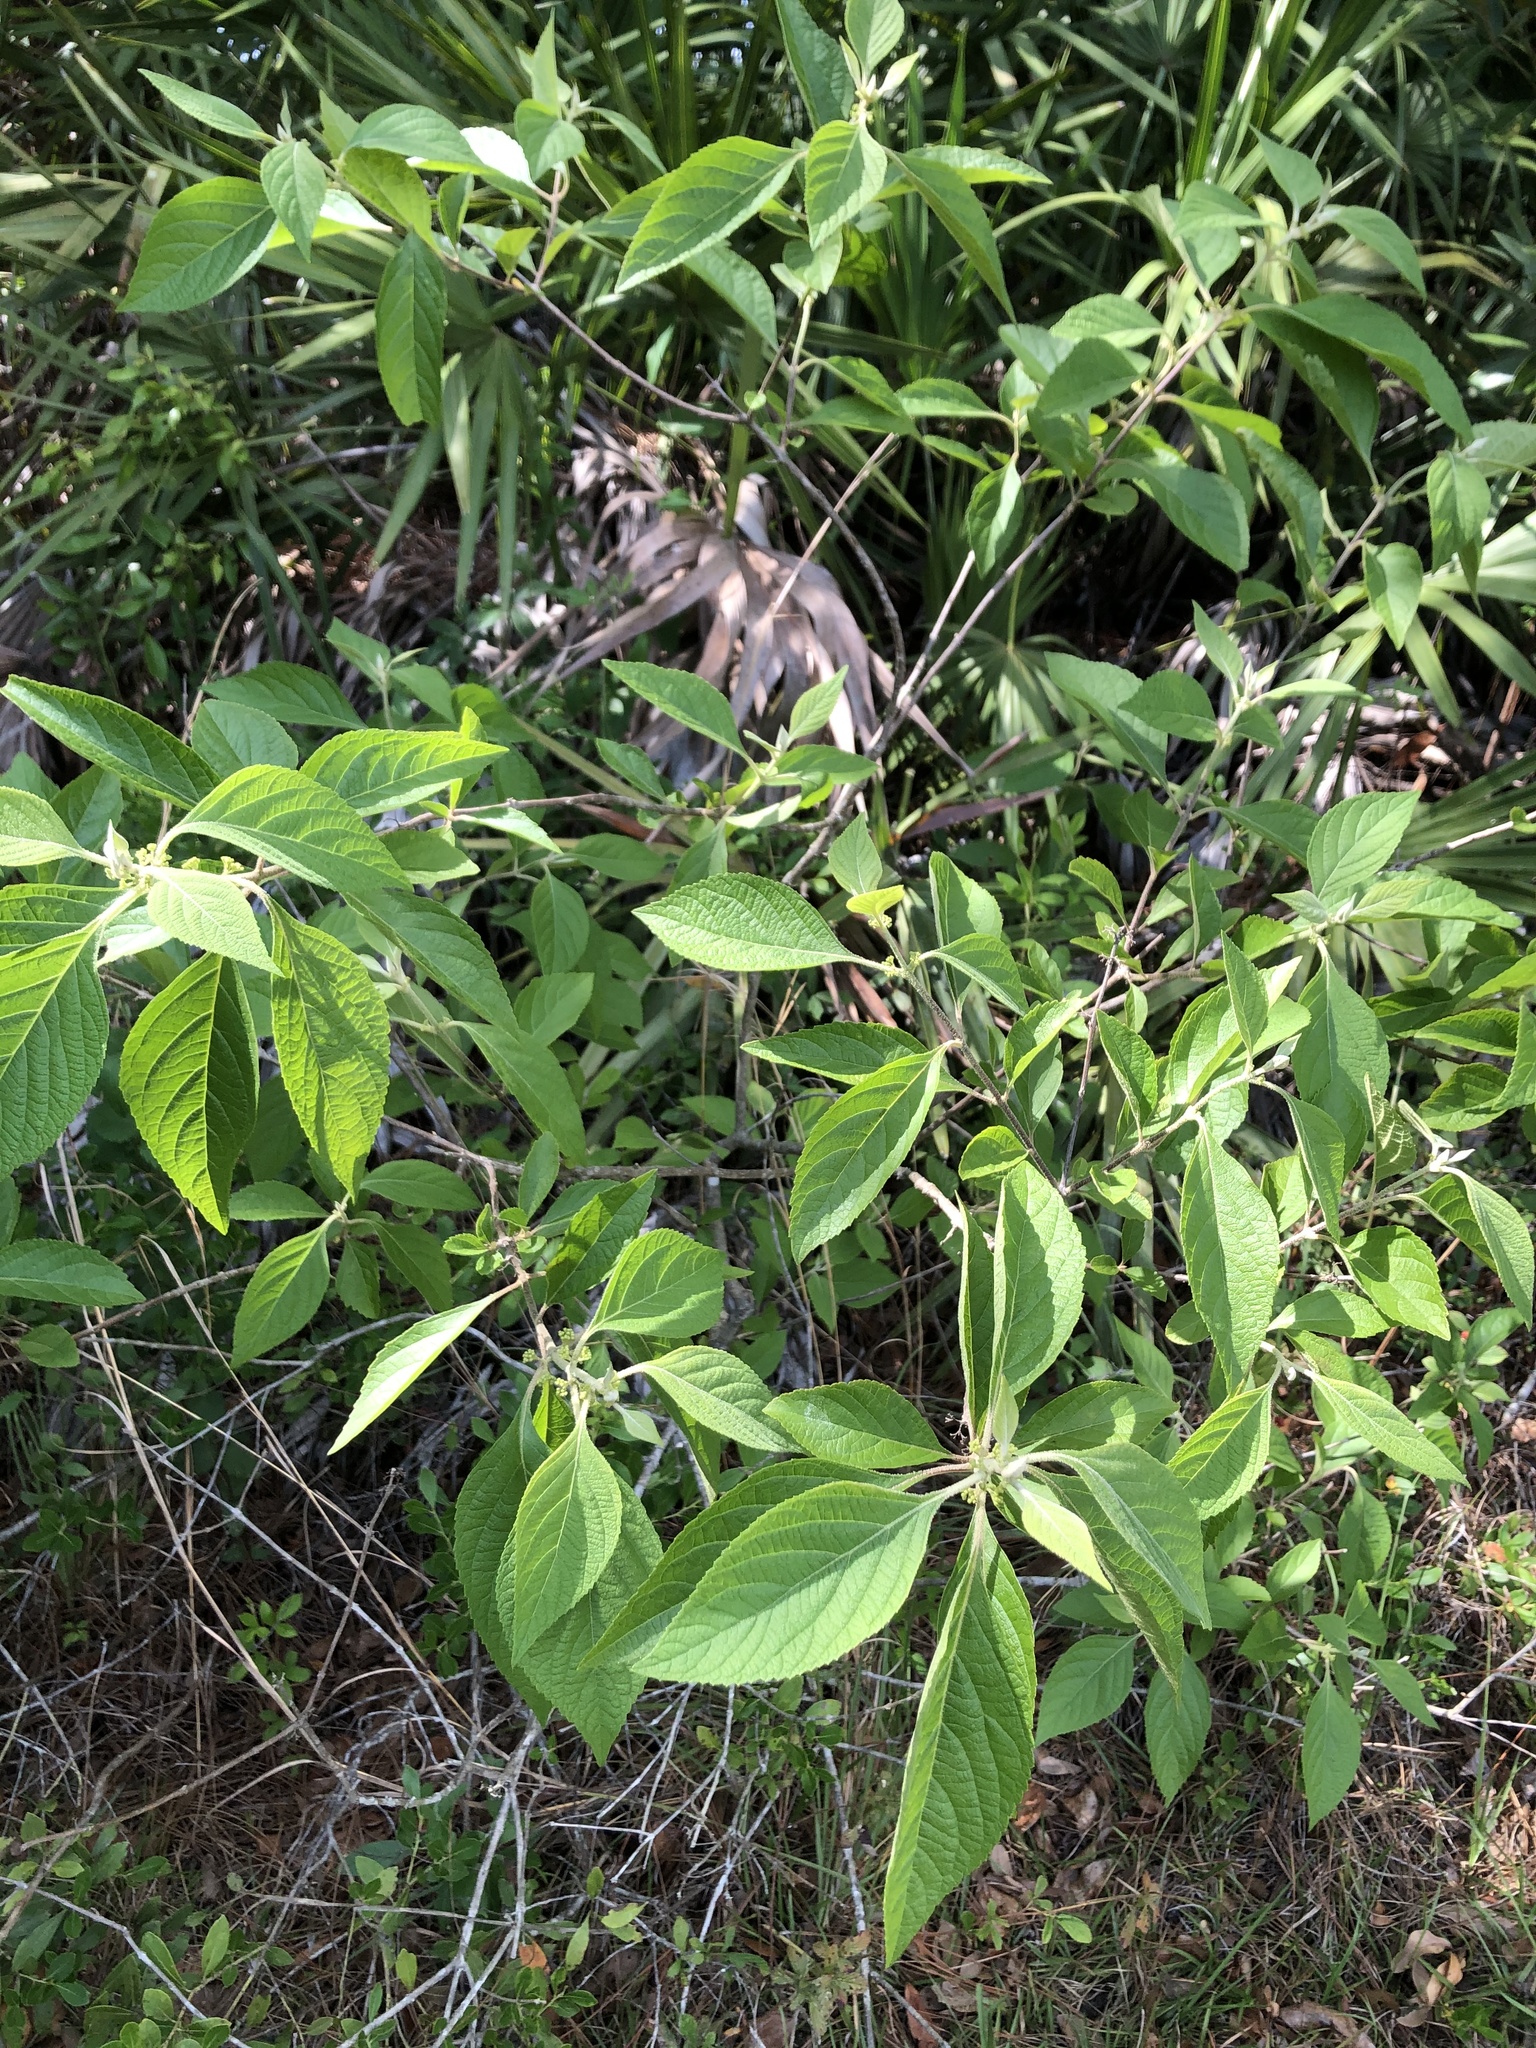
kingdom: Plantae
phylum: Tracheophyta
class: Magnoliopsida
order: Lamiales
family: Lamiaceae
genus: Callicarpa
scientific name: Callicarpa americana
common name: American beautyberry
